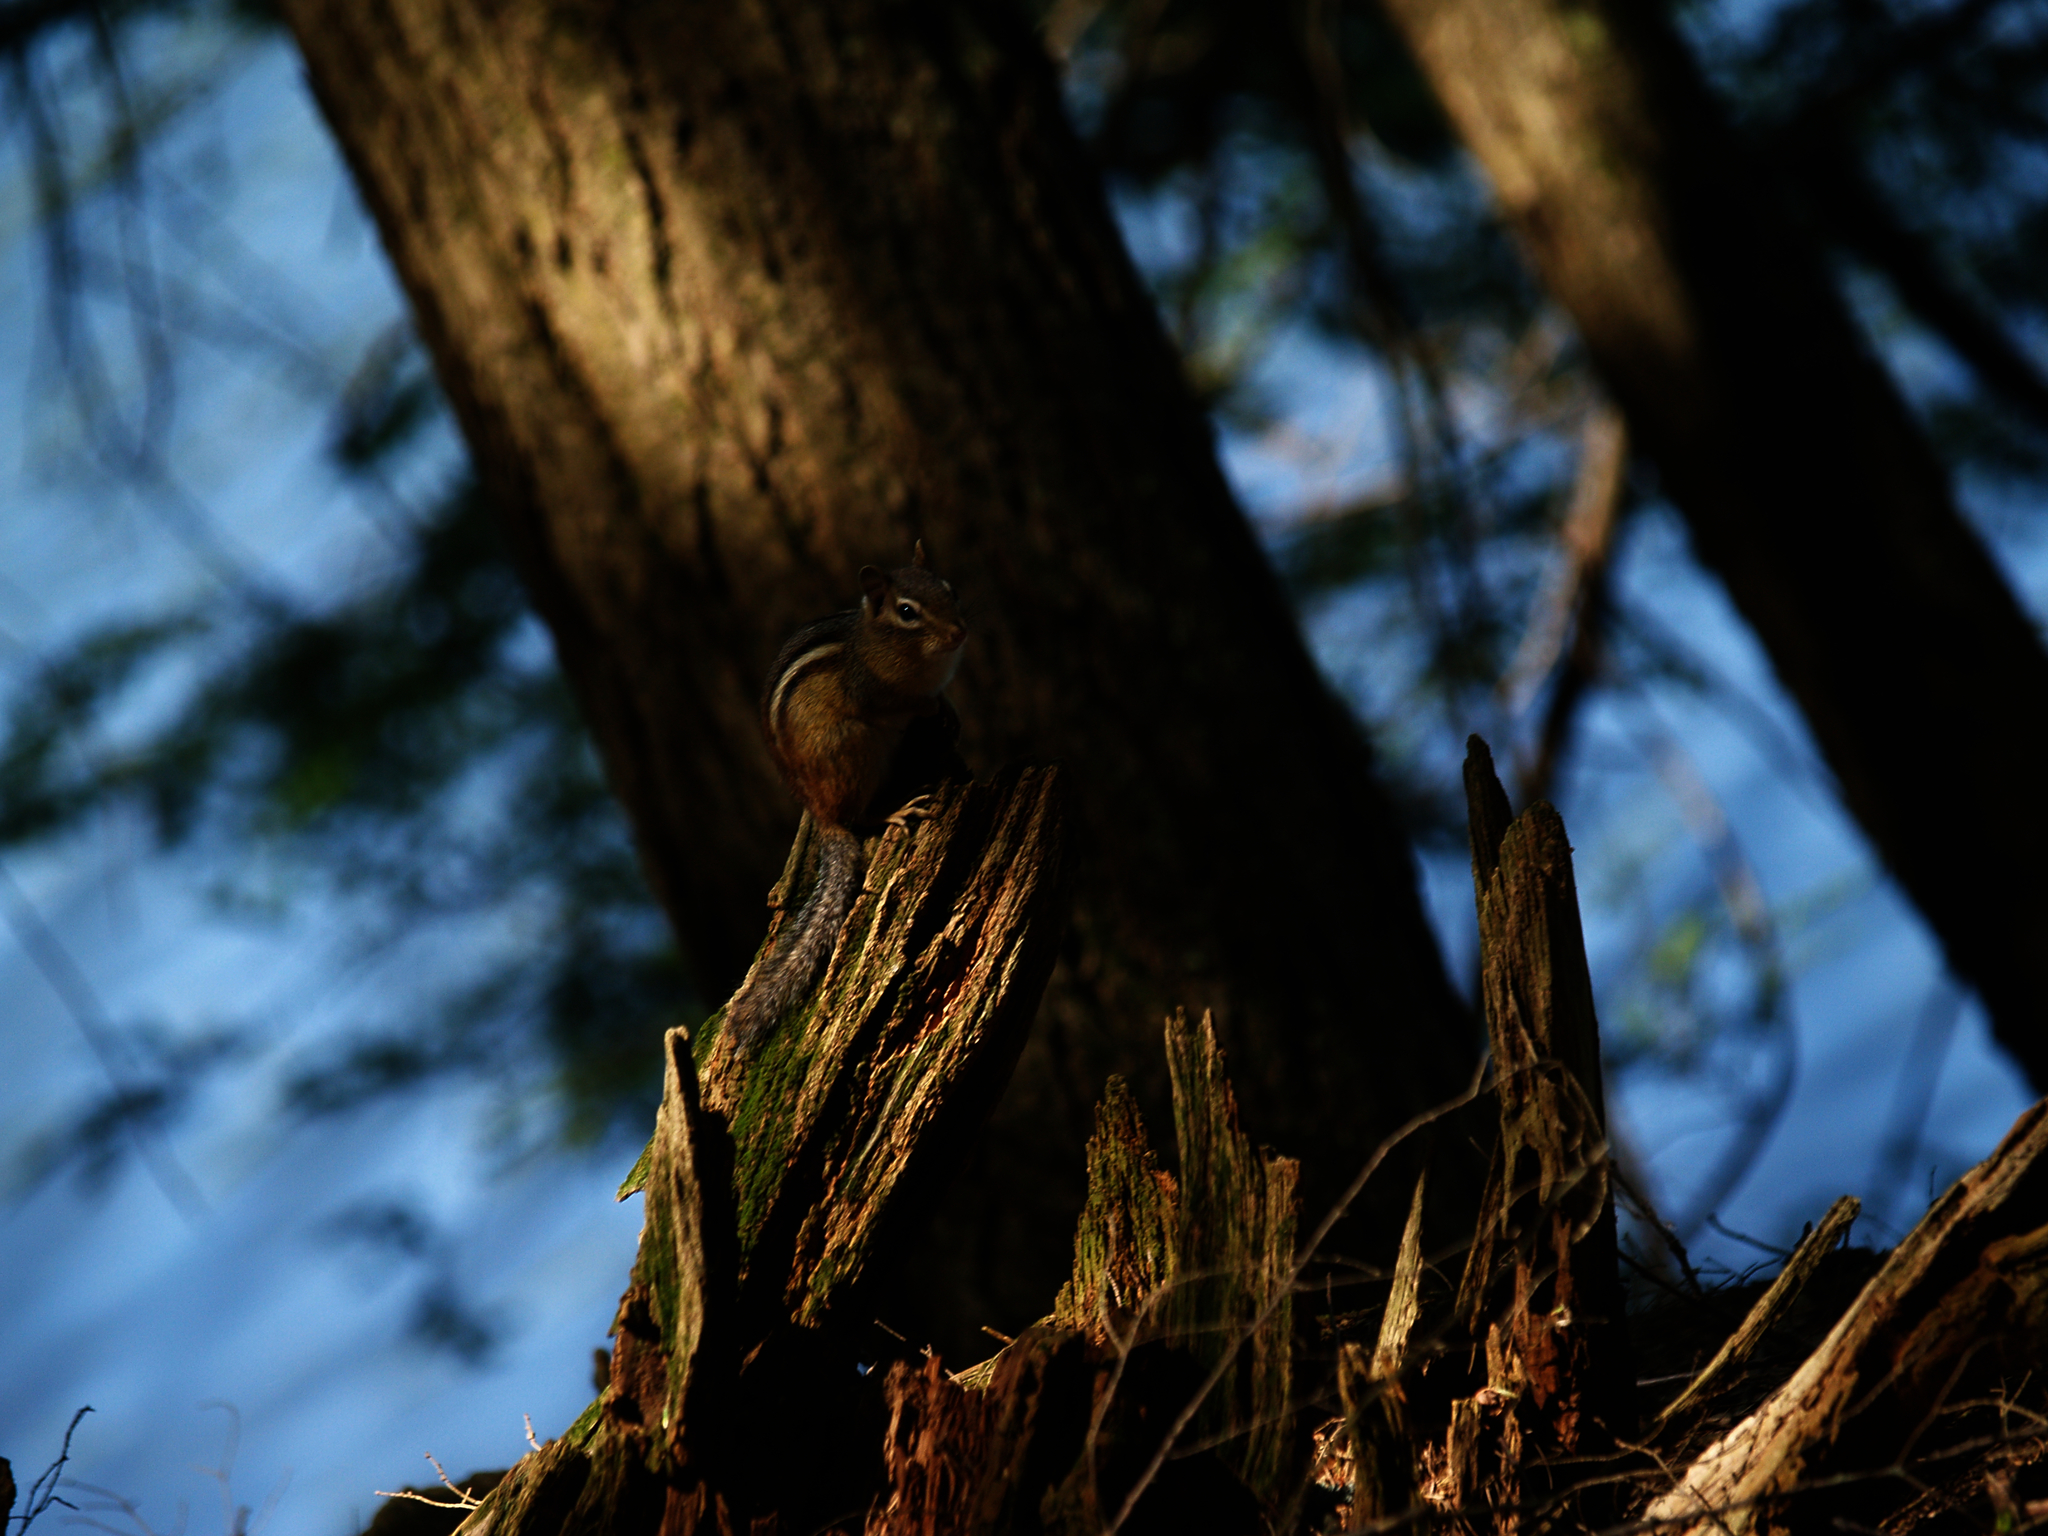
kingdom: Animalia
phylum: Chordata
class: Mammalia
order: Rodentia
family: Sciuridae
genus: Tamias
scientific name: Tamias striatus
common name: Eastern chipmunk
